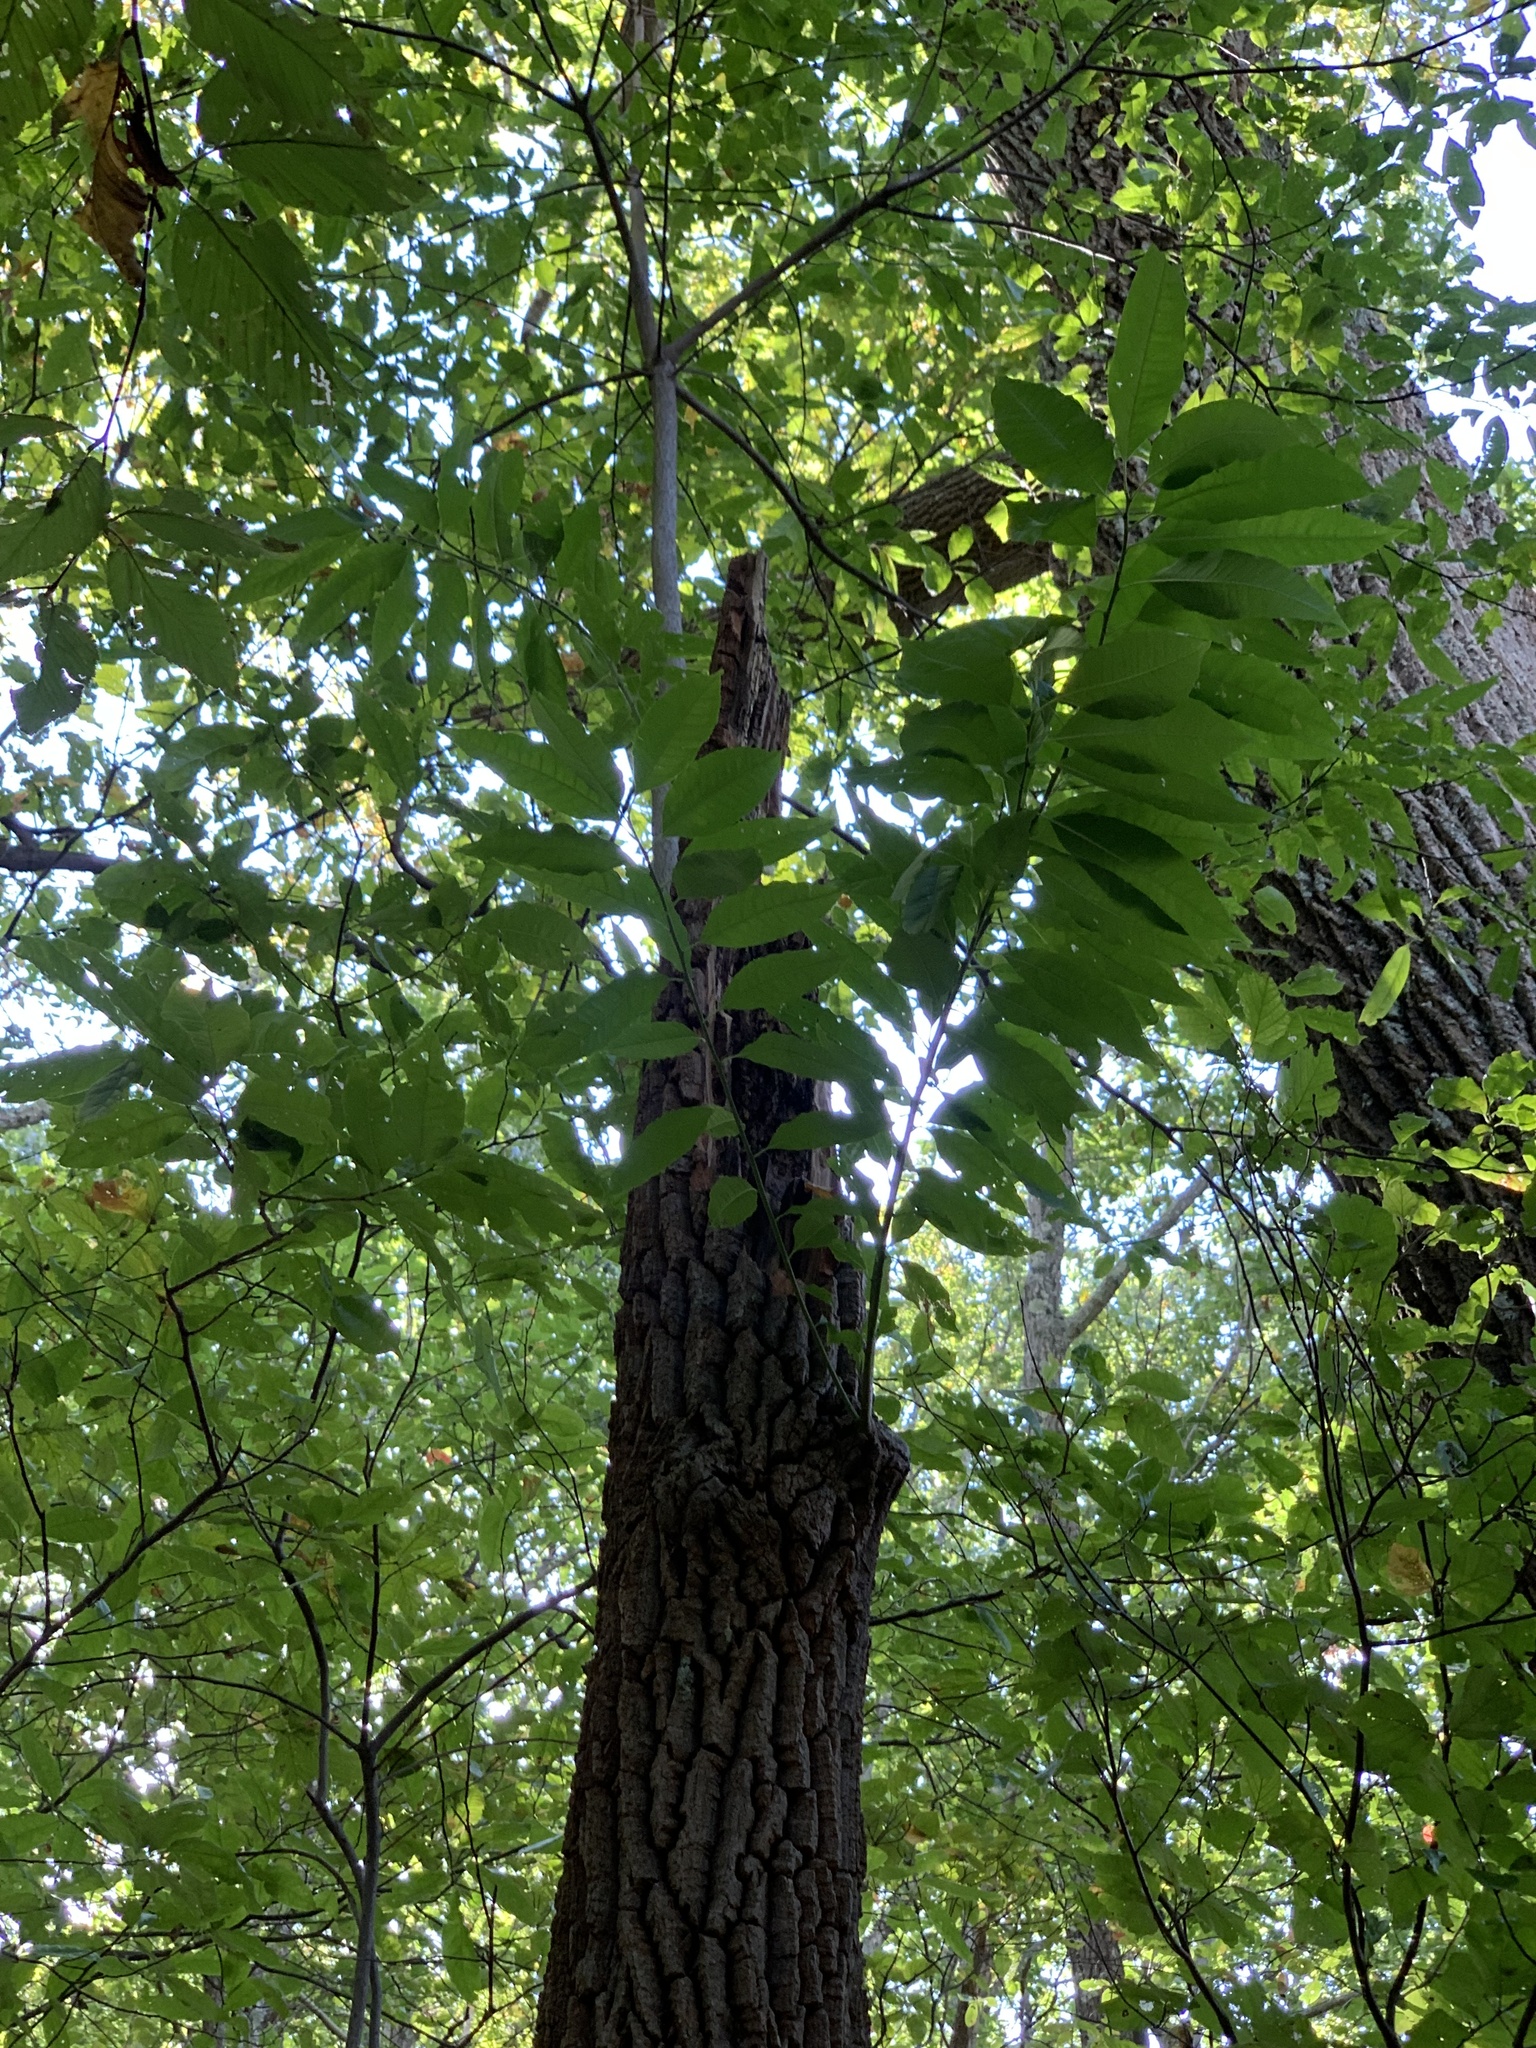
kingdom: Plantae
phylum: Tracheophyta
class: Magnoliopsida
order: Ericales
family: Ericaceae
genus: Oxydendrum
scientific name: Oxydendrum arboreum
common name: Sourwood
